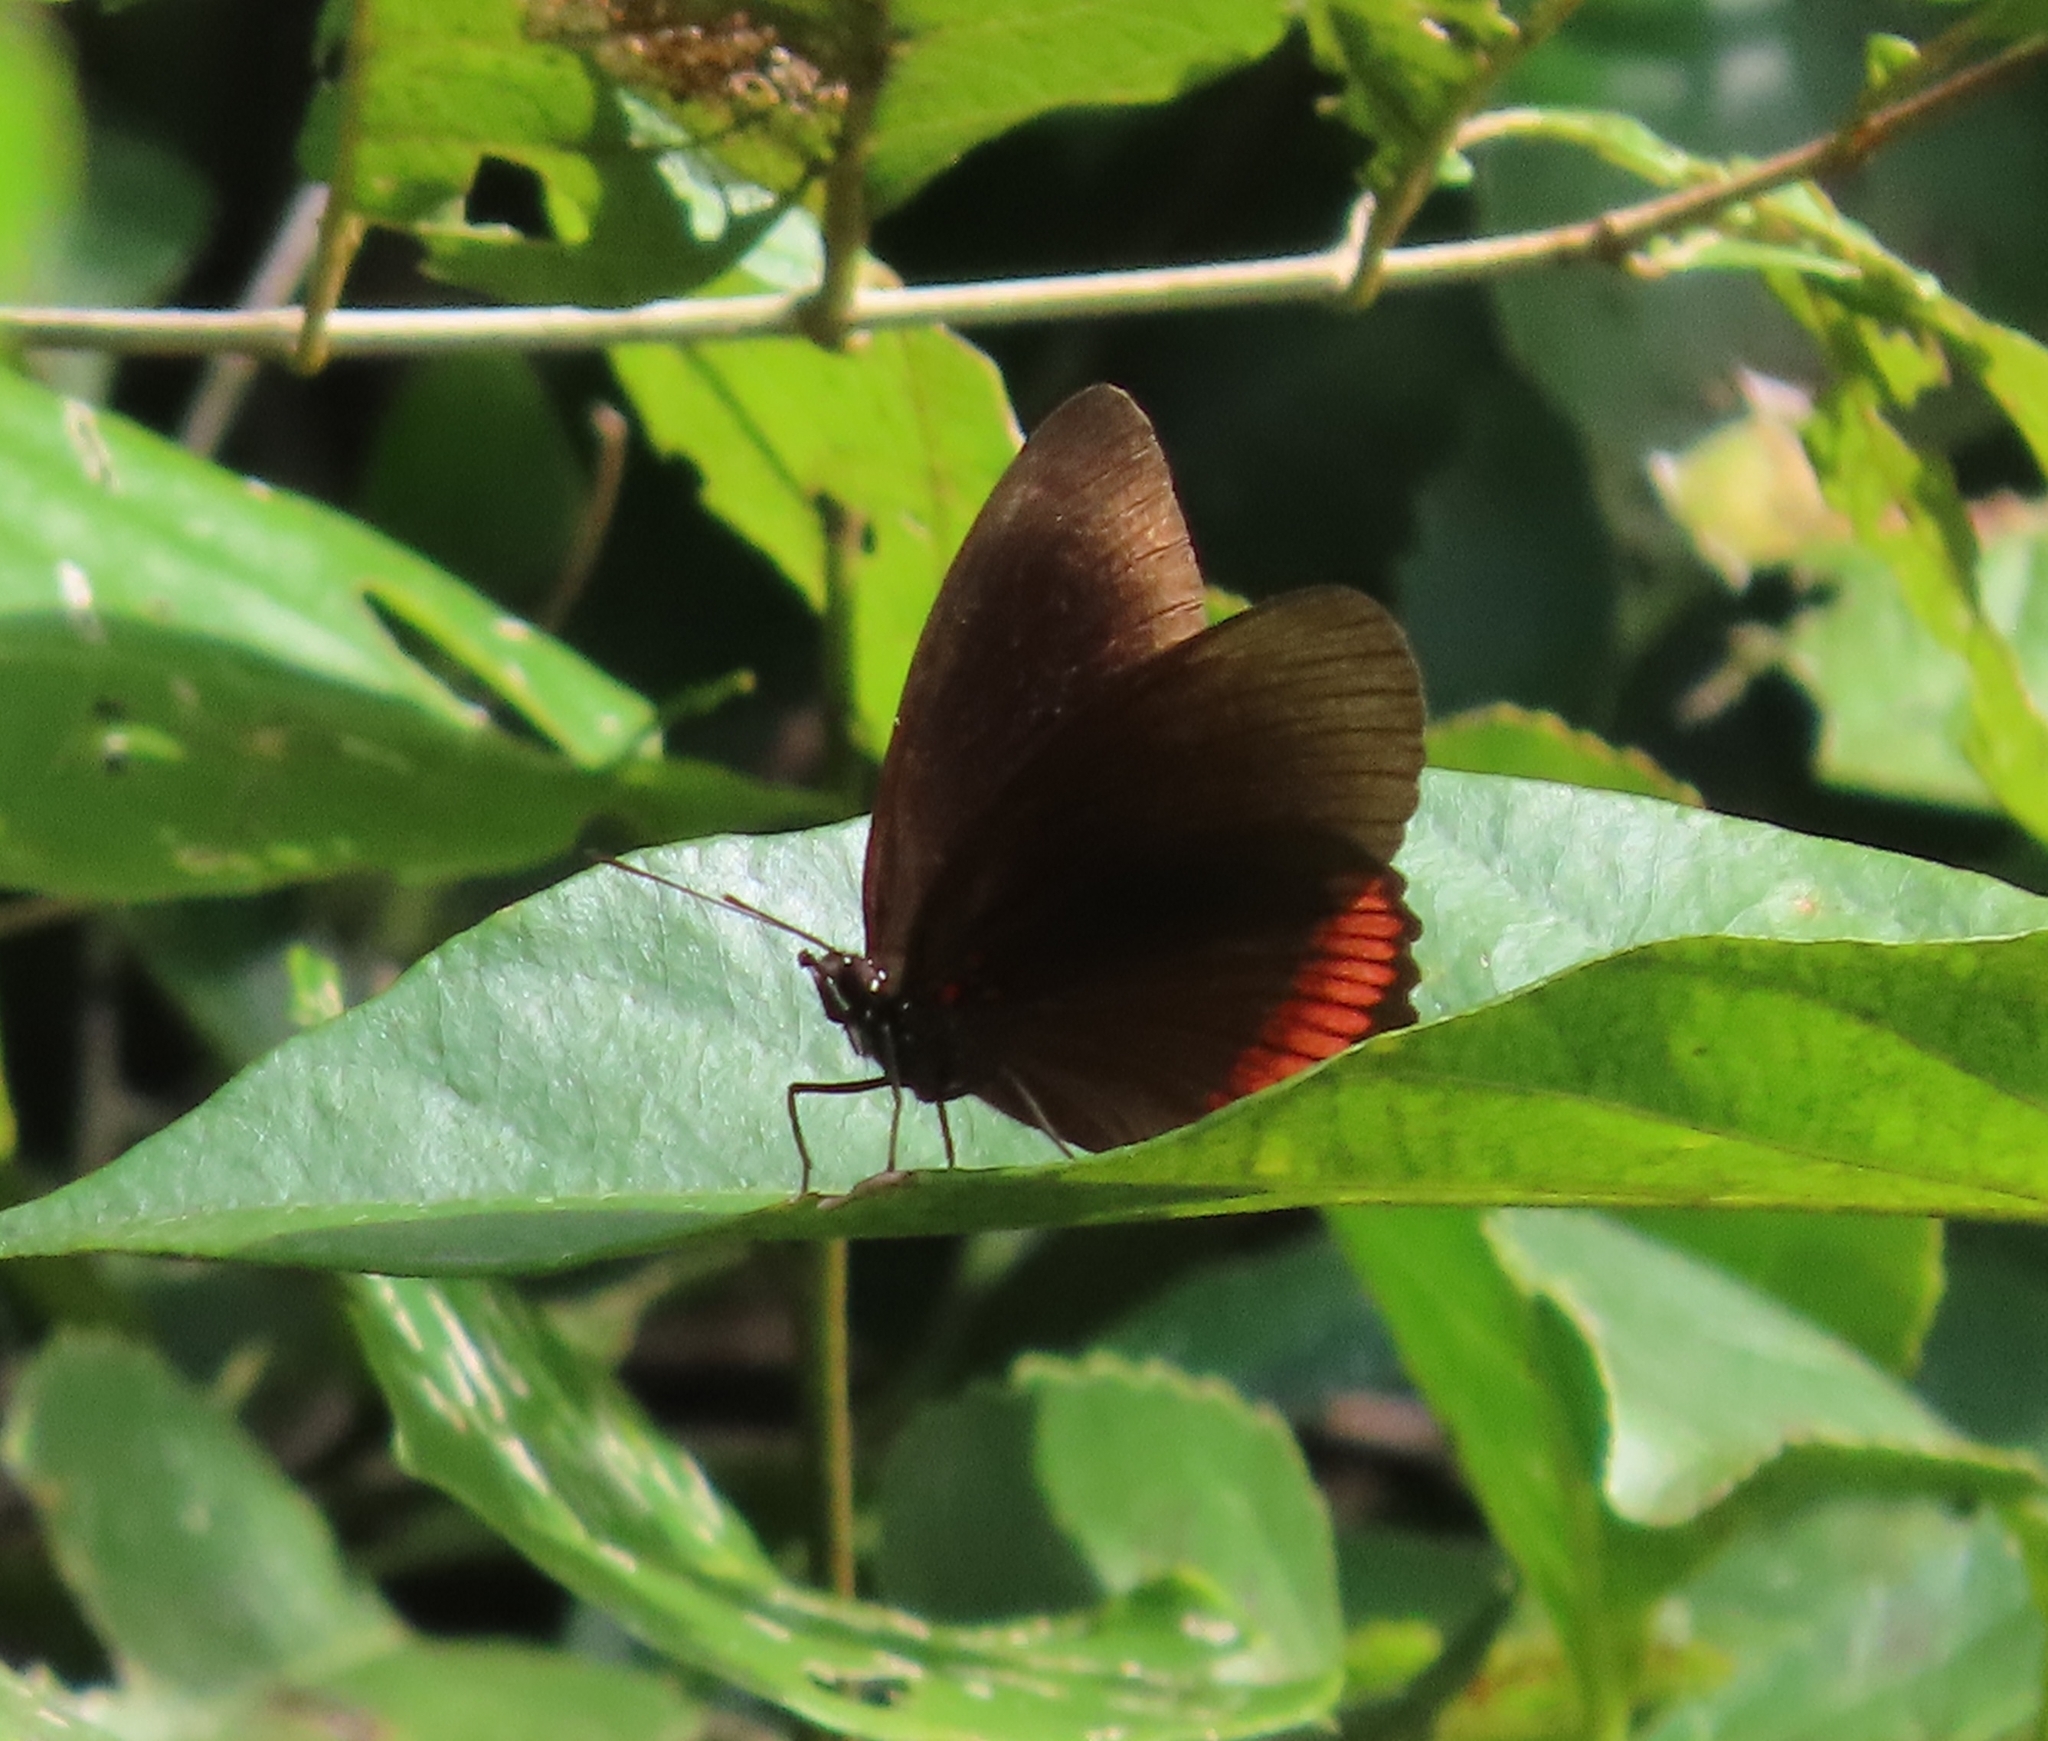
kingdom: Animalia
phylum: Arthropoda
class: Insecta
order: Lepidoptera
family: Sesiidae
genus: Sesia
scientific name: Sesia Biblis hyperia
